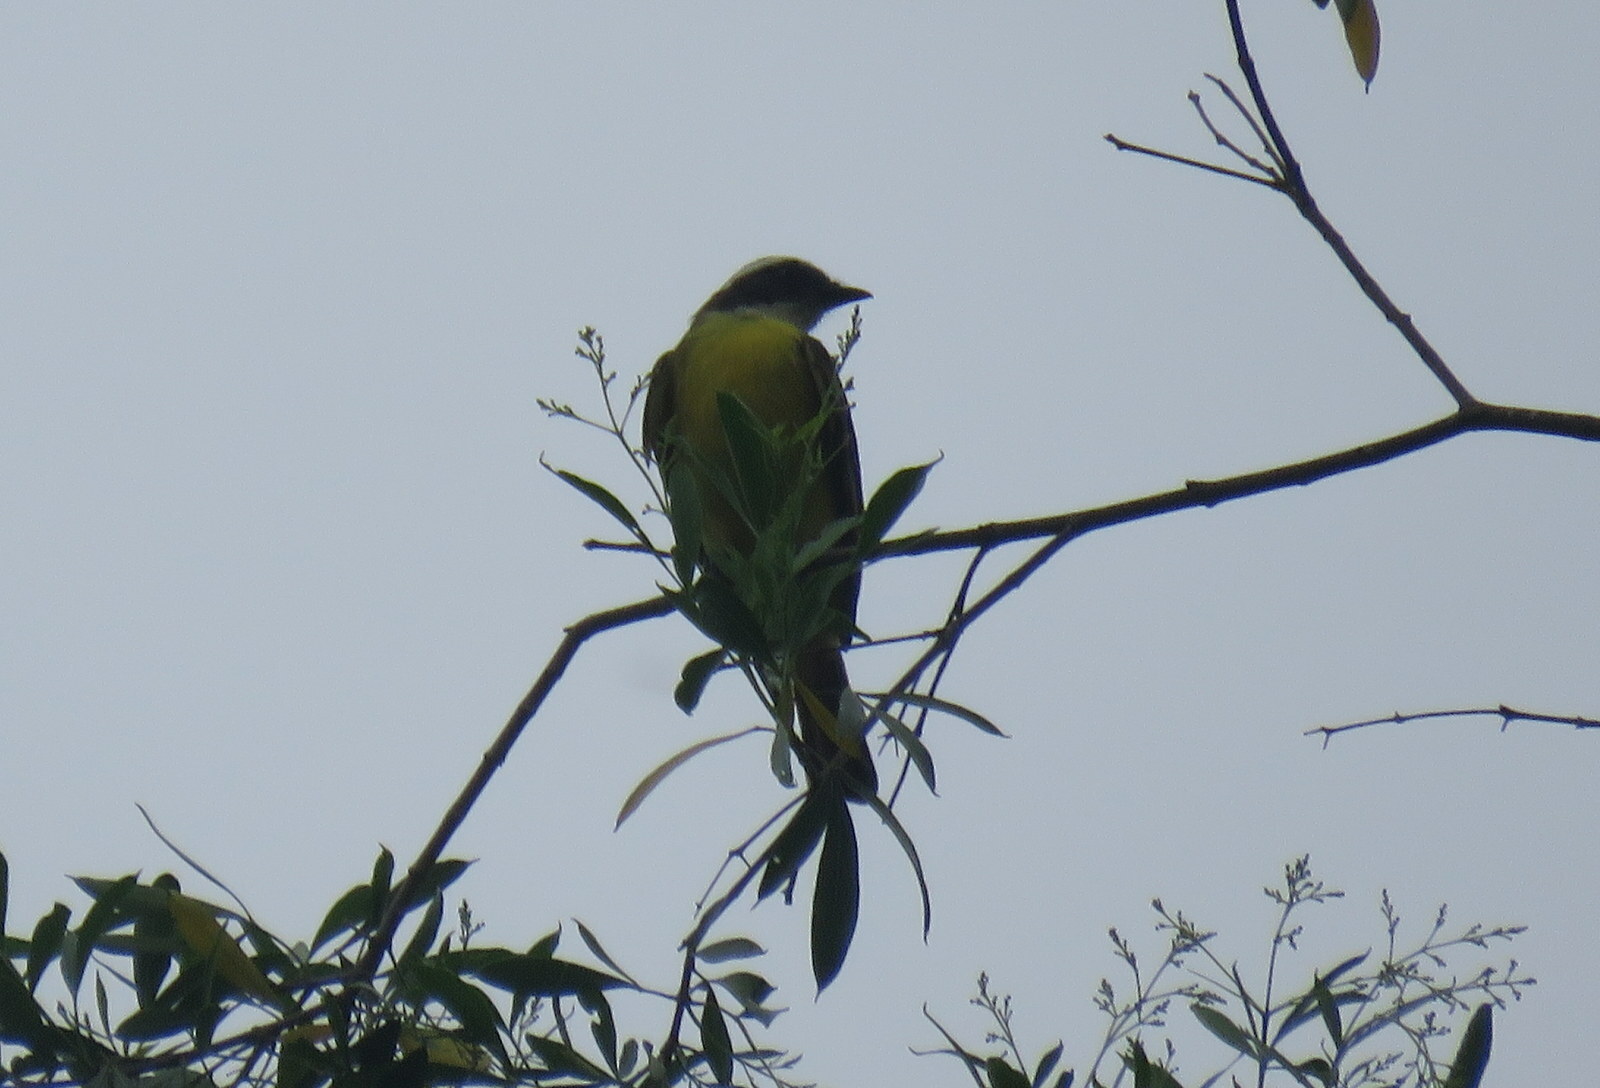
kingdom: Animalia
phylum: Chordata
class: Aves
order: Passeriformes
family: Tyrannidae
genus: Myiozetetes
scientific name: Myiozetetes similis
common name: Social flycatcher
